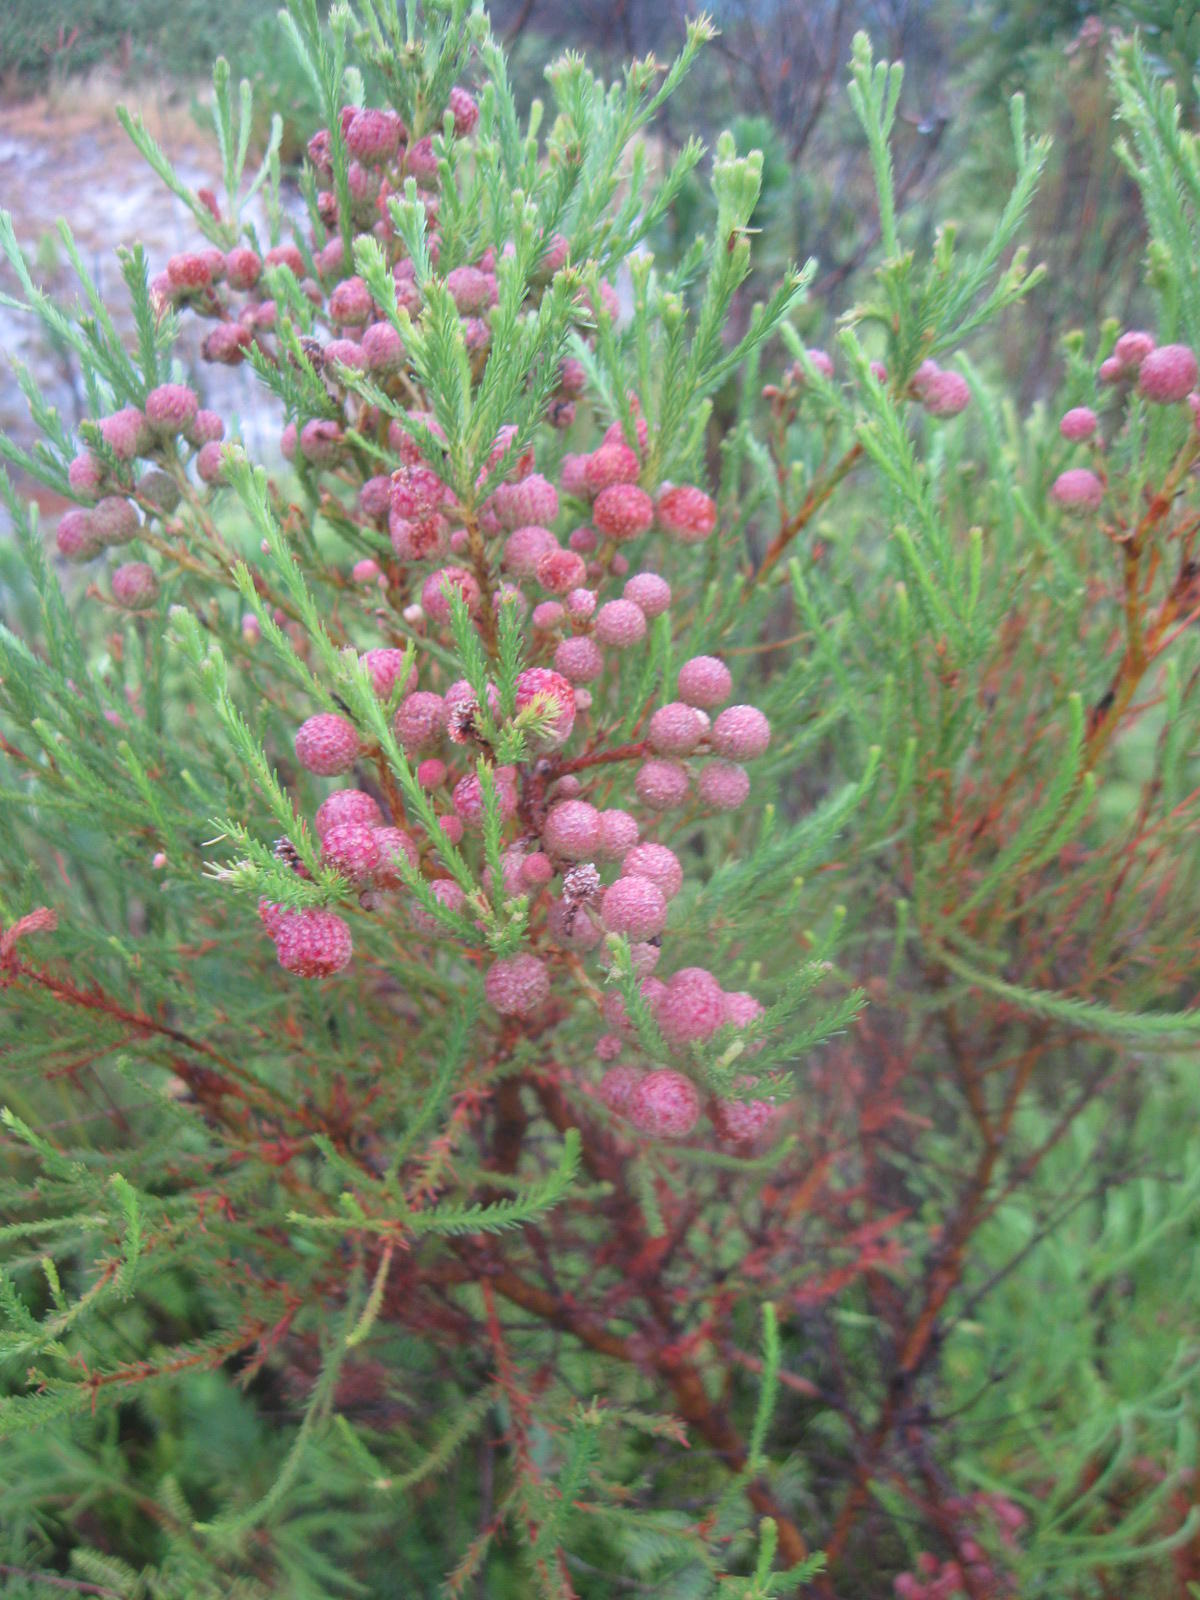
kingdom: Plantae
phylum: Tracheophyta
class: Magnoliopsida
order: Bruniales
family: Bruniaceae
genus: Berzelia
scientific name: Berzelia lanuginosa
